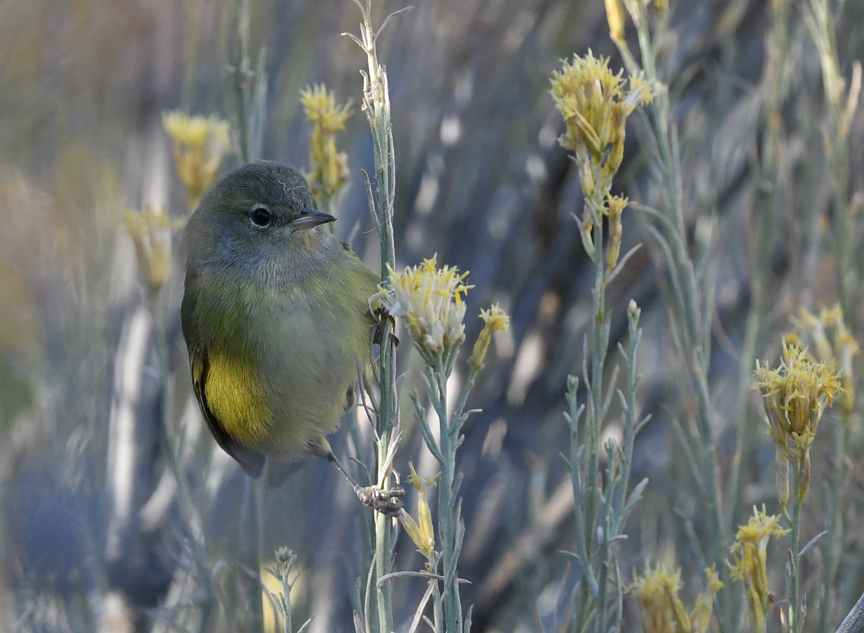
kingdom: Animalia
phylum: Chordata
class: Aves
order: Passeriformes
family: Parulidae
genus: Leiothlypis
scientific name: Leiothlypis celata
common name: Orange-crowned warbler
